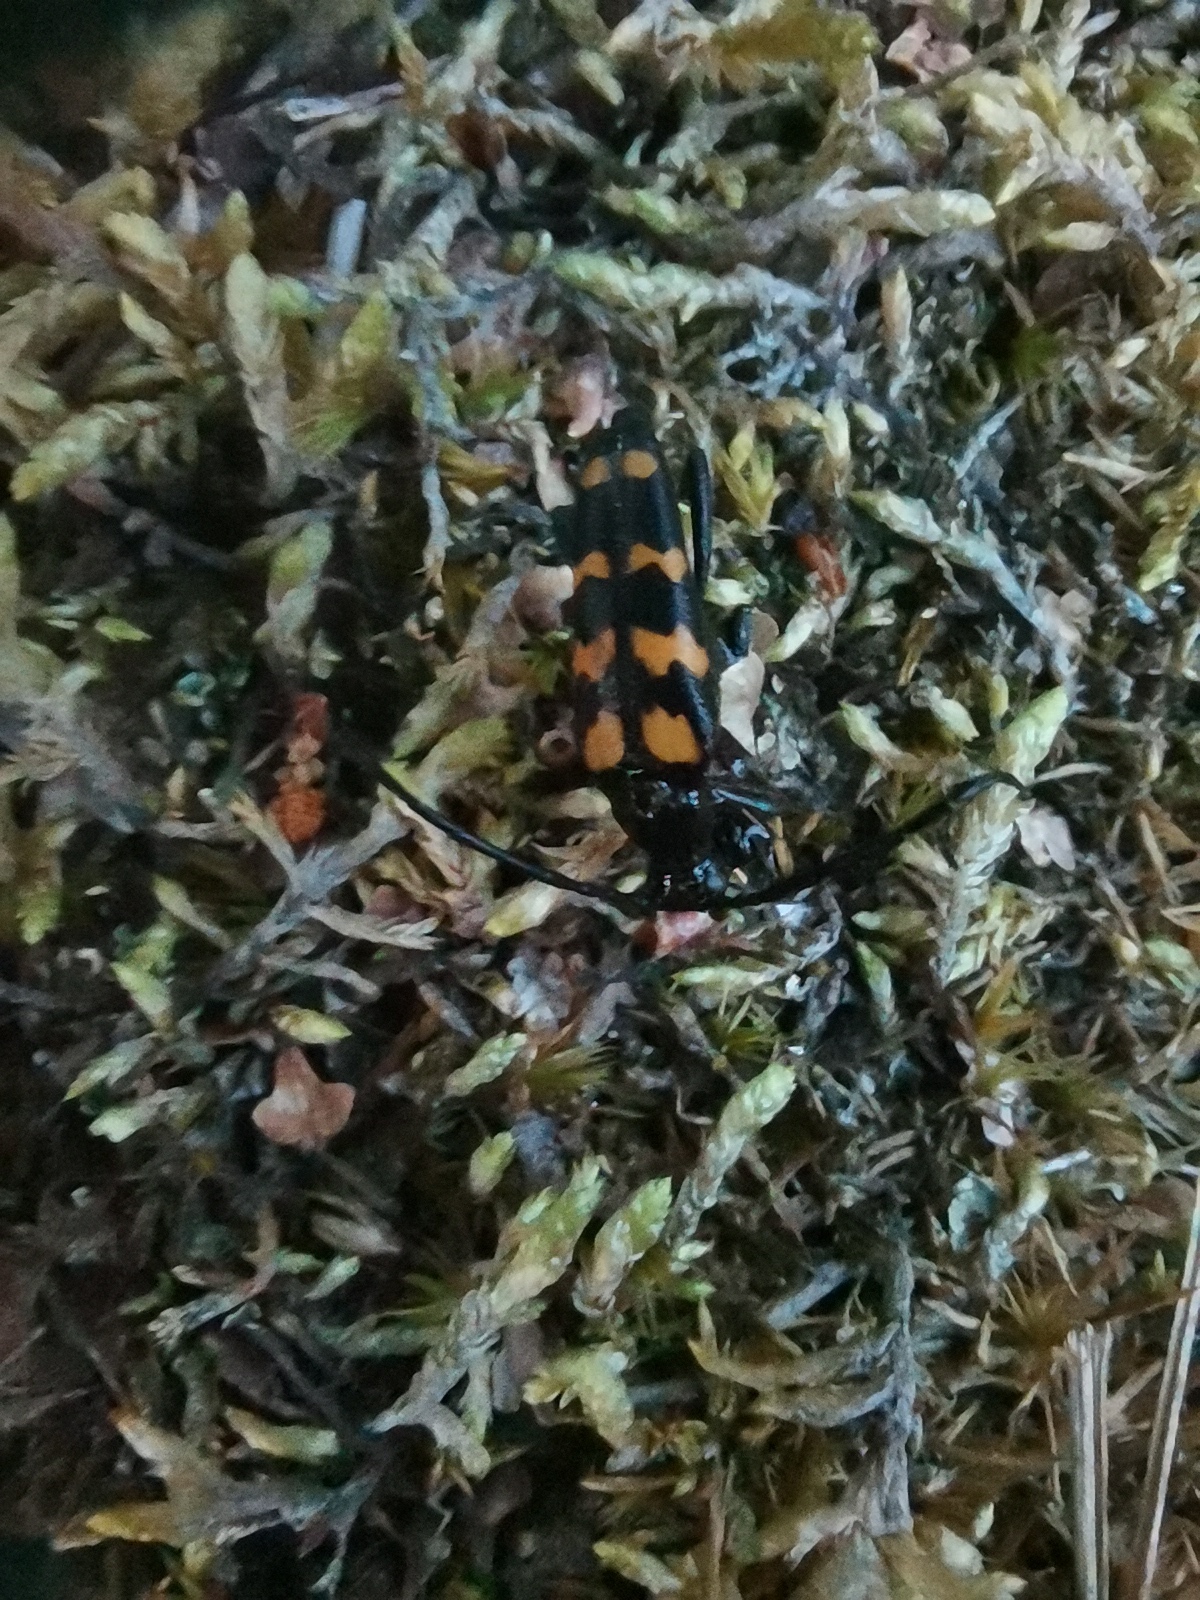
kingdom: Animalia
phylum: Arthropoda
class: Insecta
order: Coleoptera
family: Cerambycidae
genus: Leptura
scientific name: Leptura quadrifasciata
